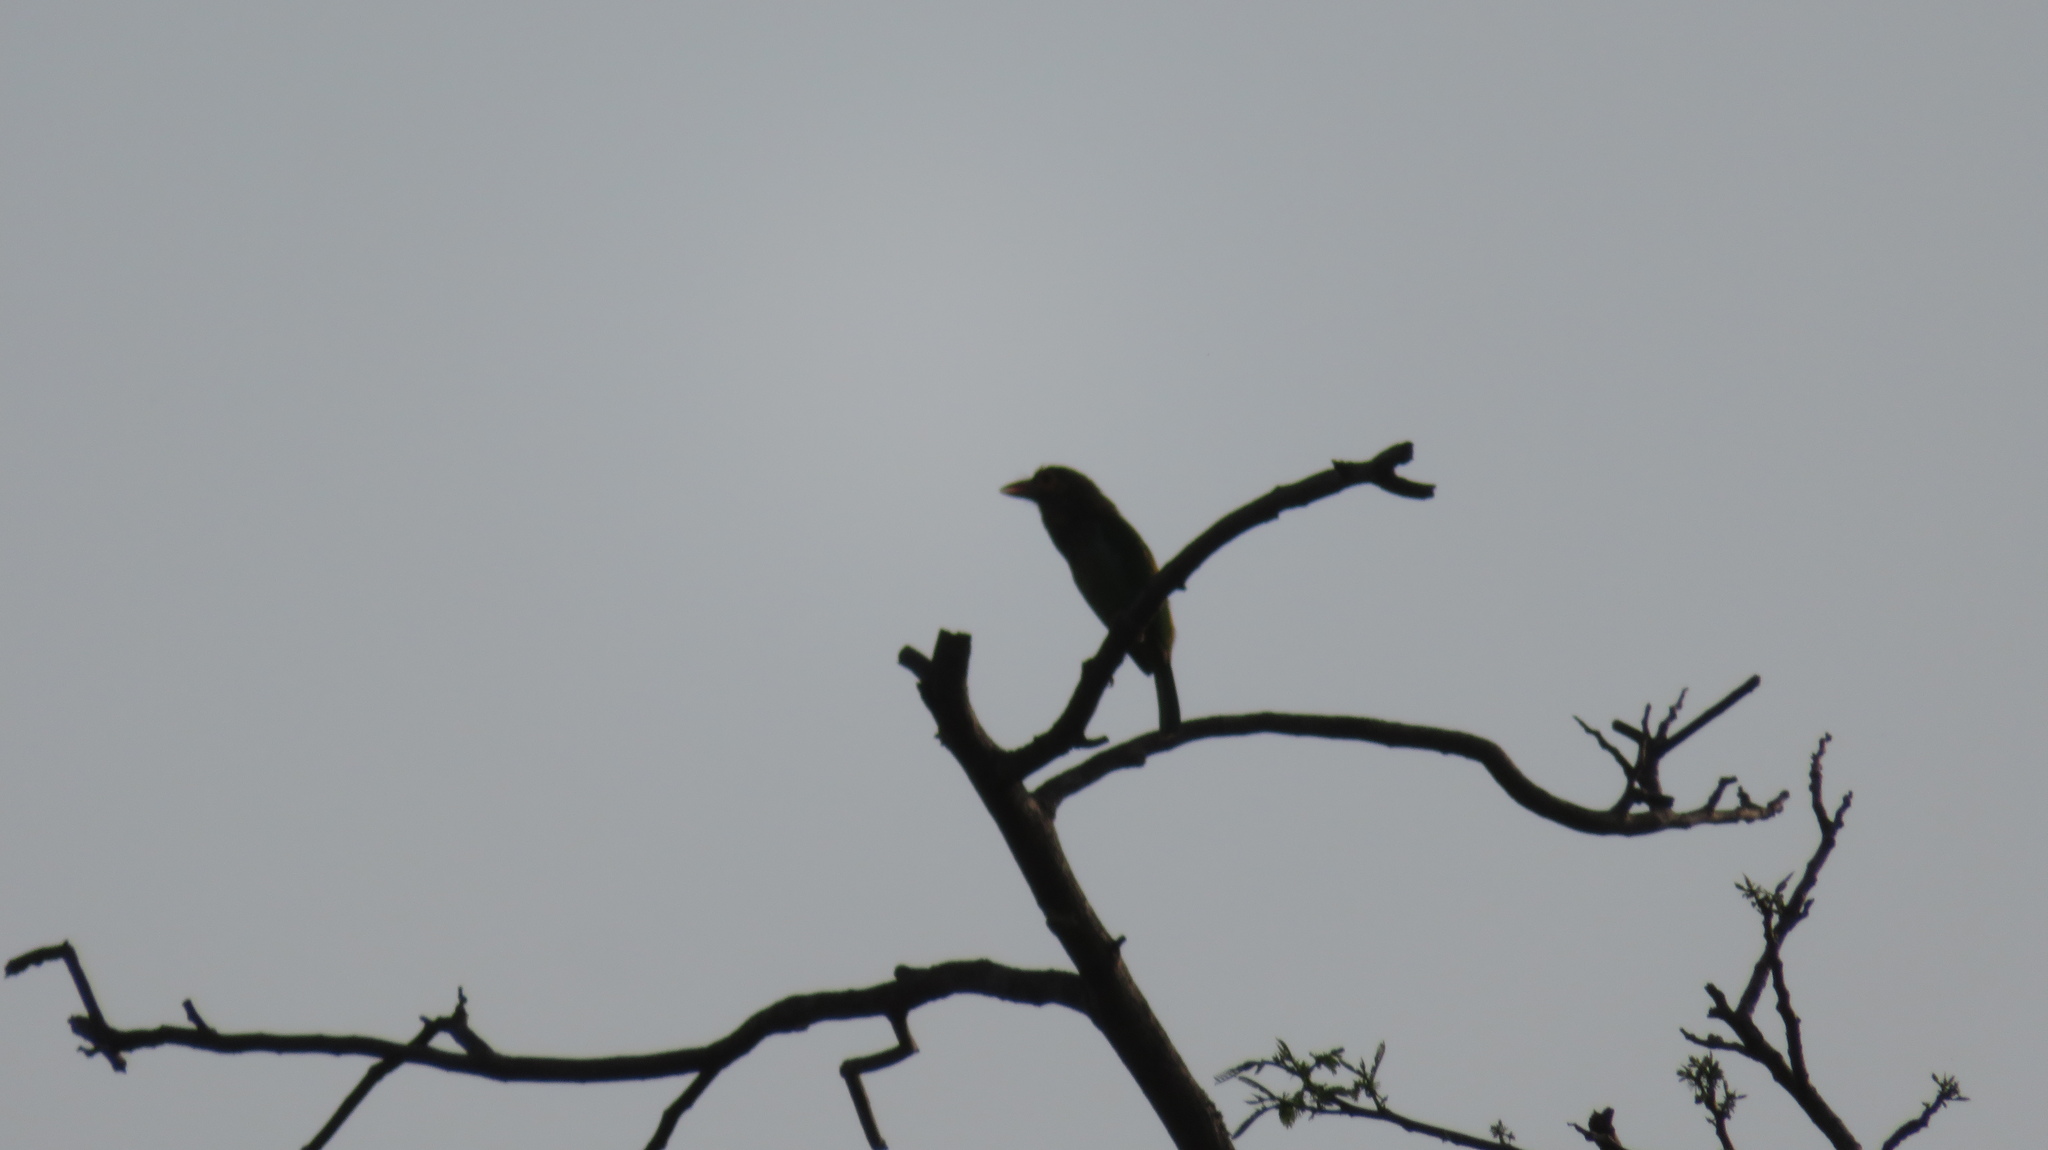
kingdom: Animalia
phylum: Chordata
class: Aves
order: Piciformes
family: Megalaimidae
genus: Psilopogon
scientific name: Psilopogon zeylanicus
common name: Brown-headed barbet
